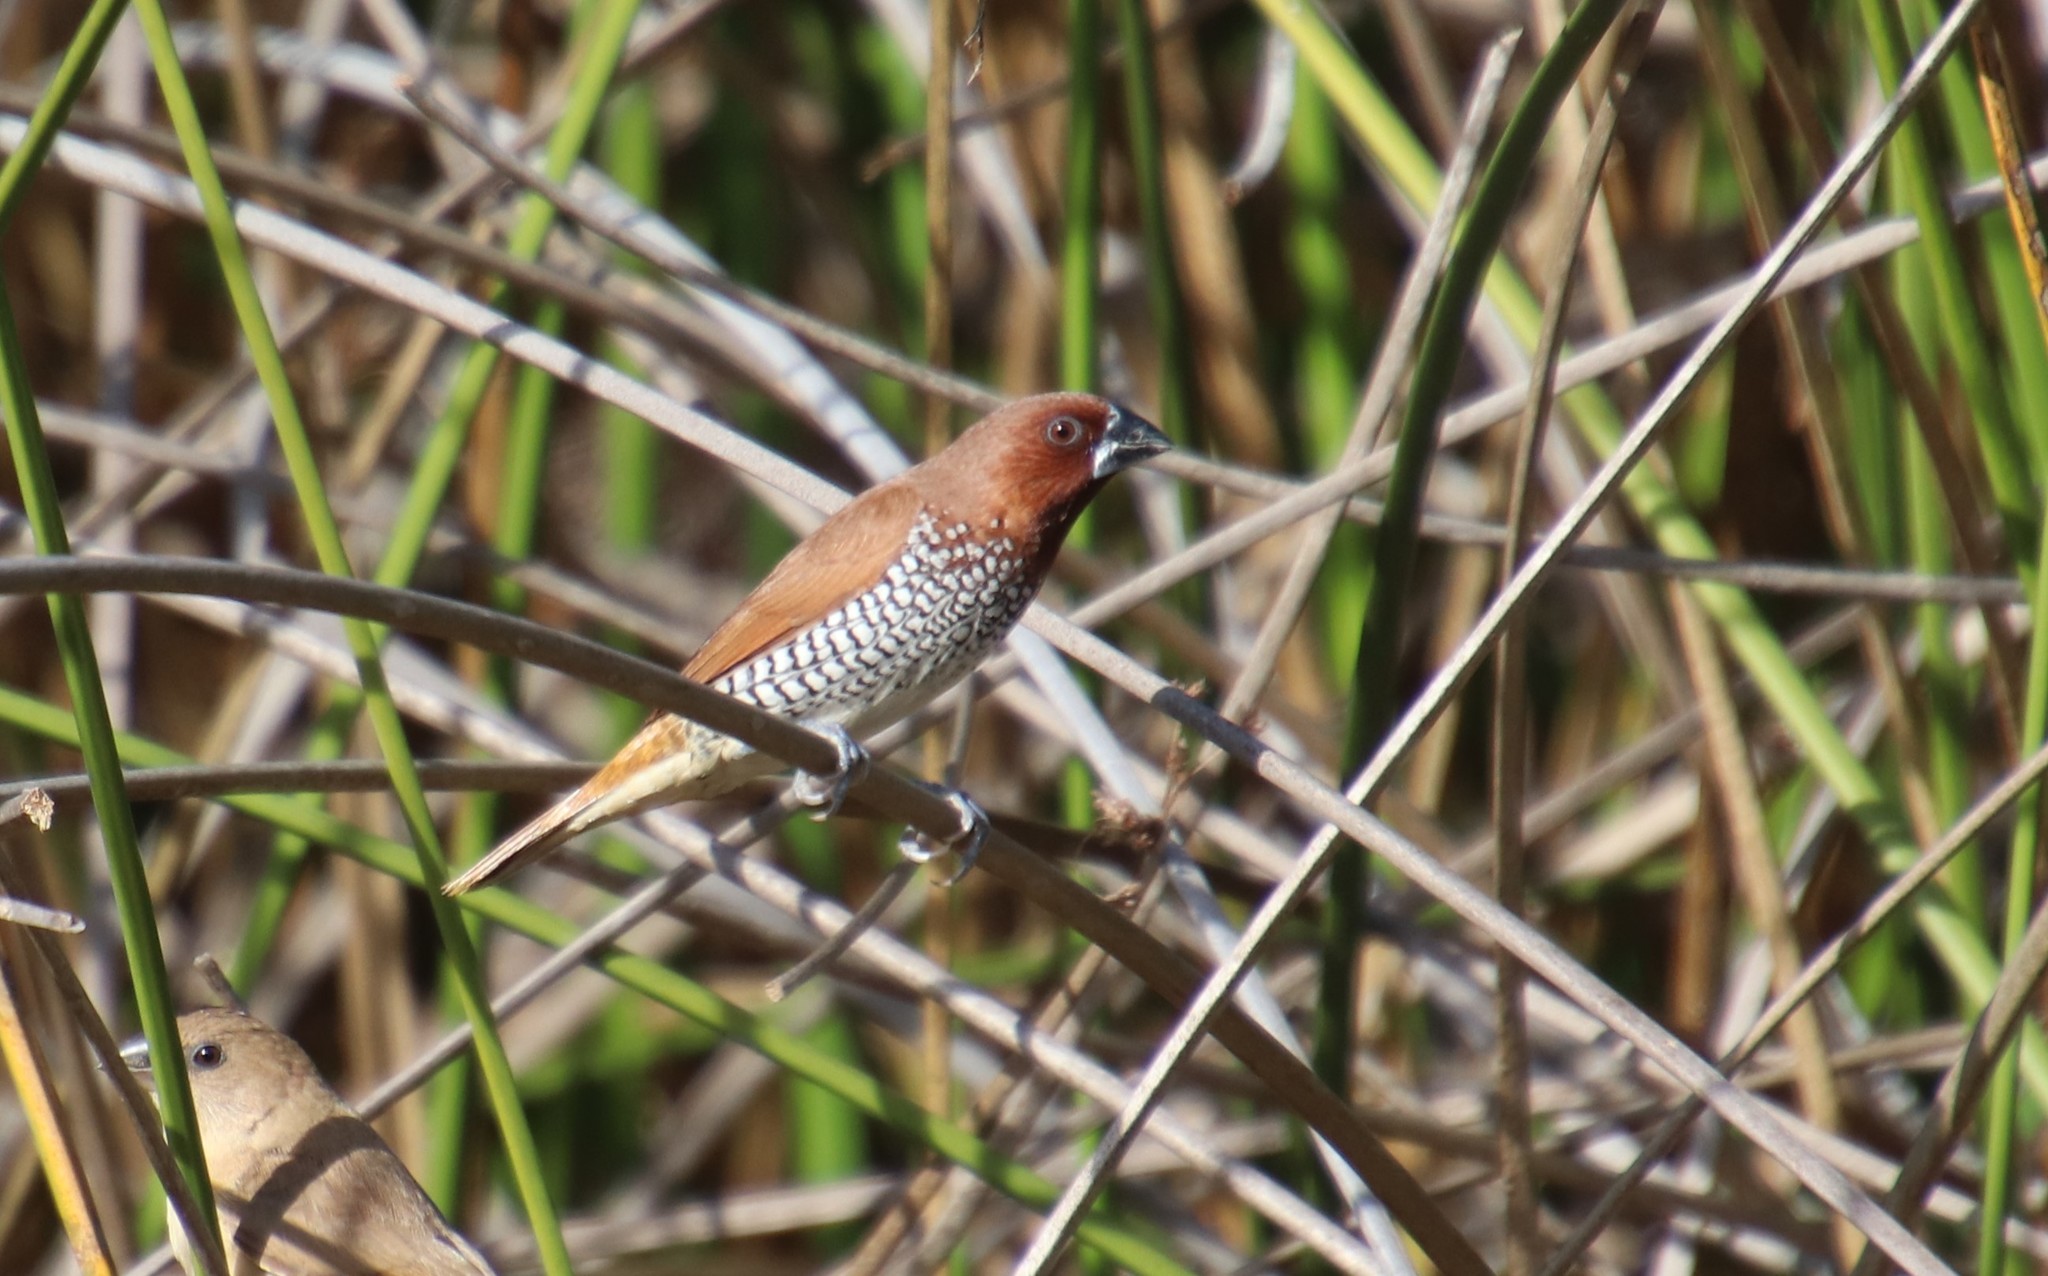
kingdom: Animalia
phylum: Chordata
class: Aves
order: Passeriformes
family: Estrildidae
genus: Lonchura
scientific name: Lonchura punctulata
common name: Scaly-breasted munia
